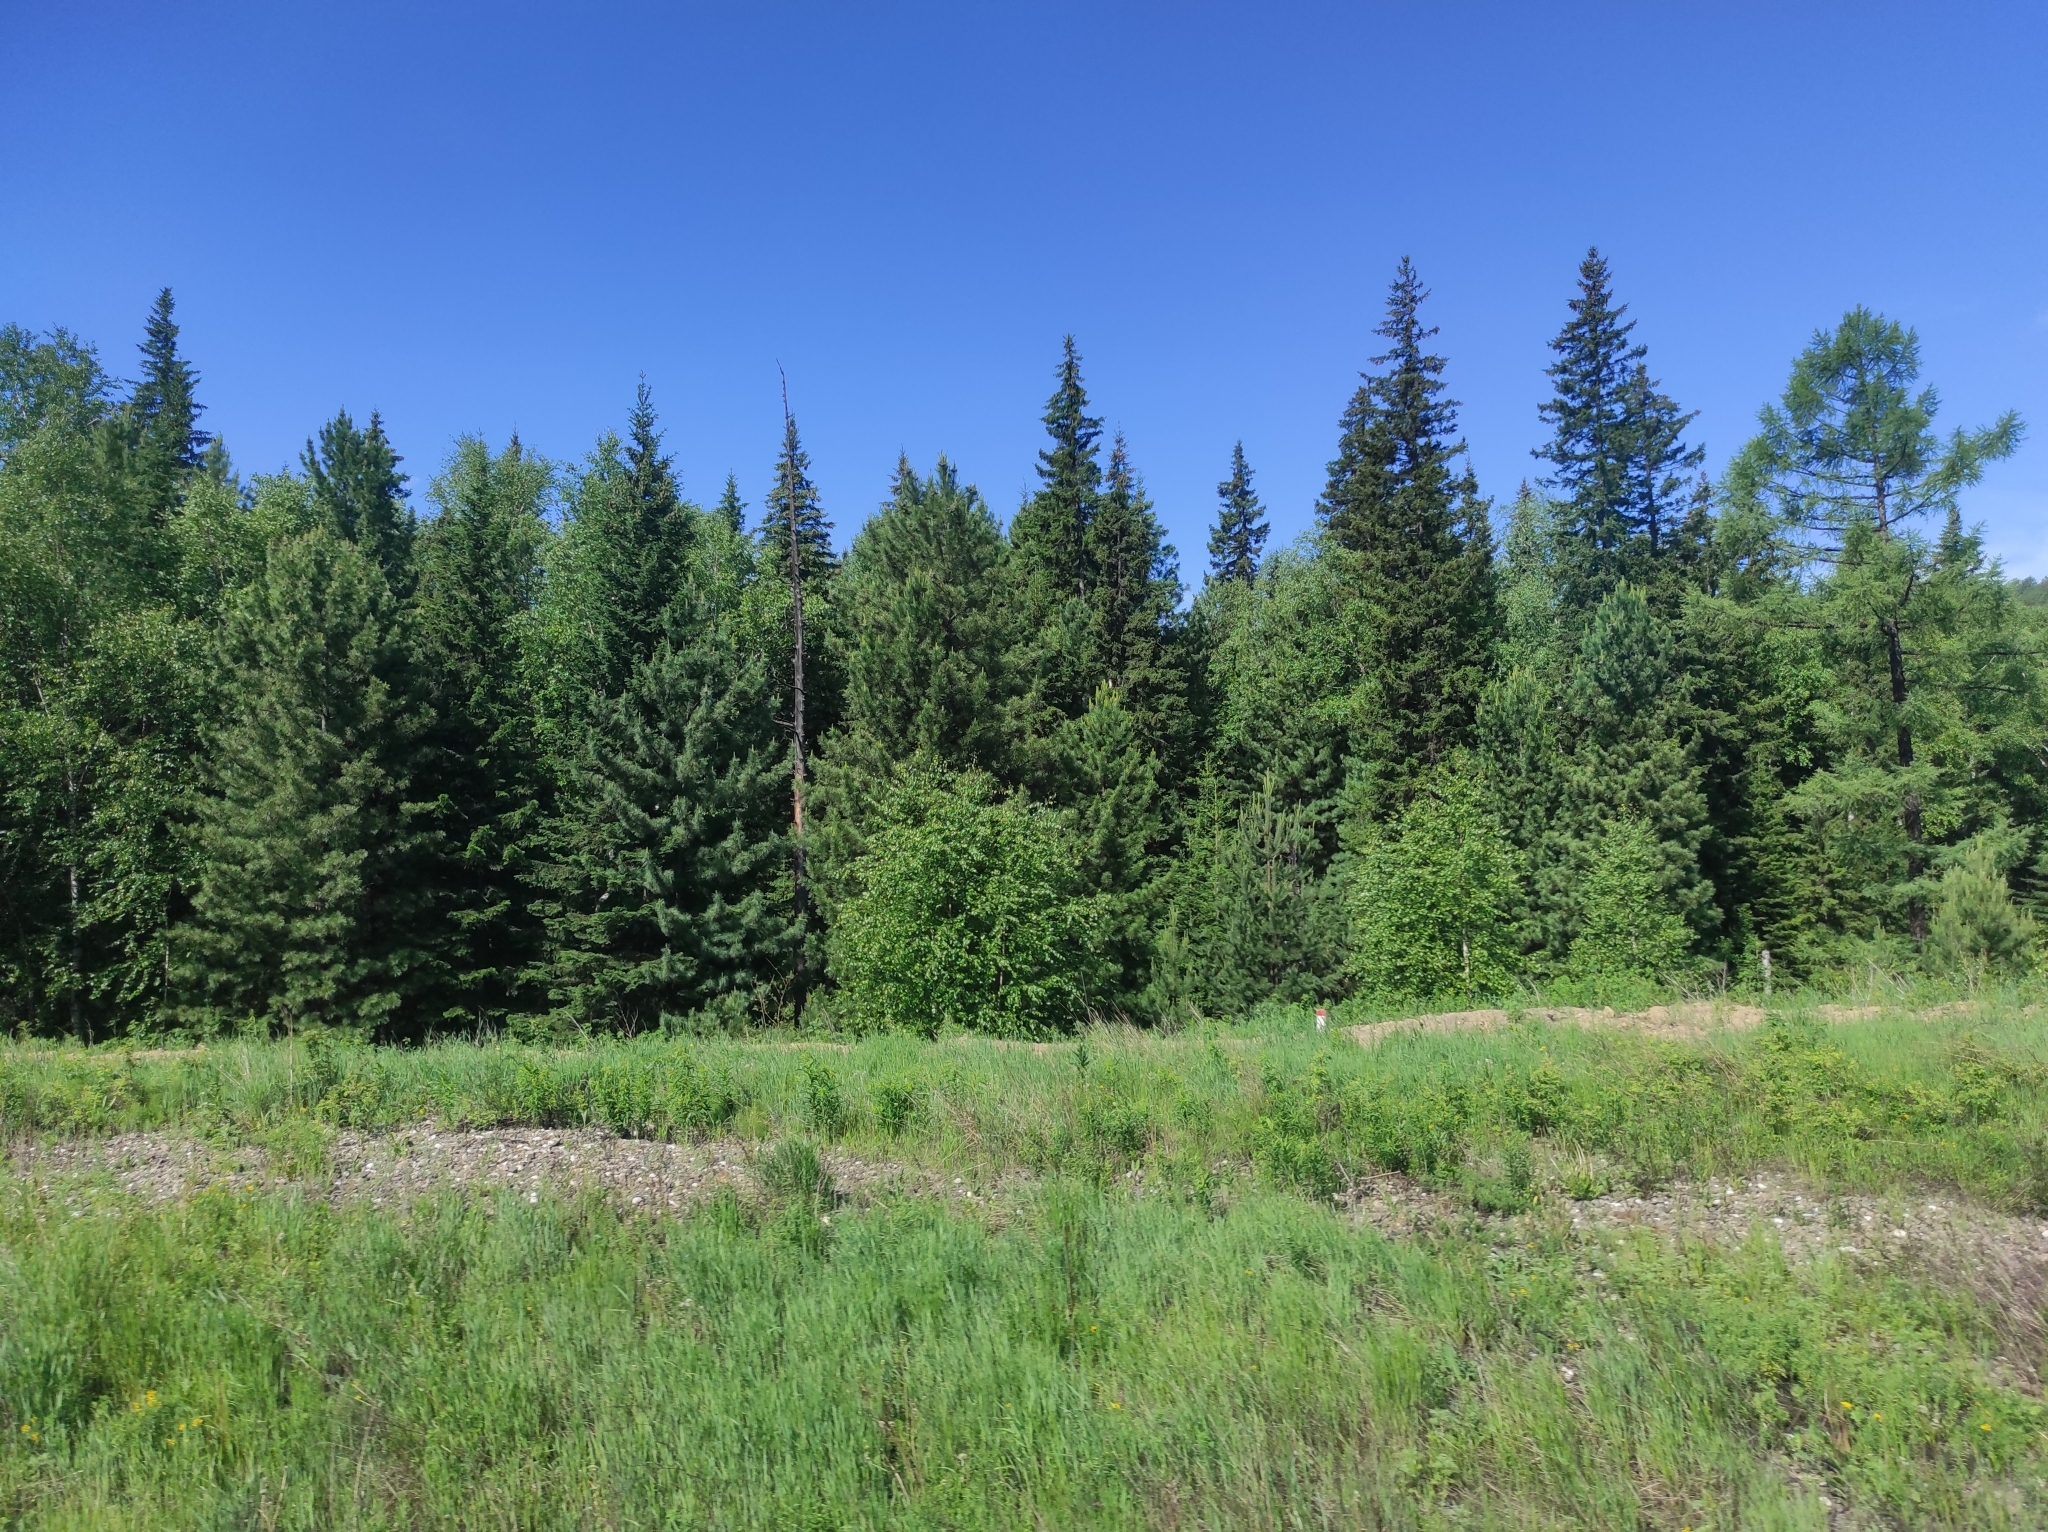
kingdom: Plantae
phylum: Tracheophyta
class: Magnoliopsida
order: Fagales
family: Betulaceae
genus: Betula
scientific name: Betula pendula
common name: Silver birch
